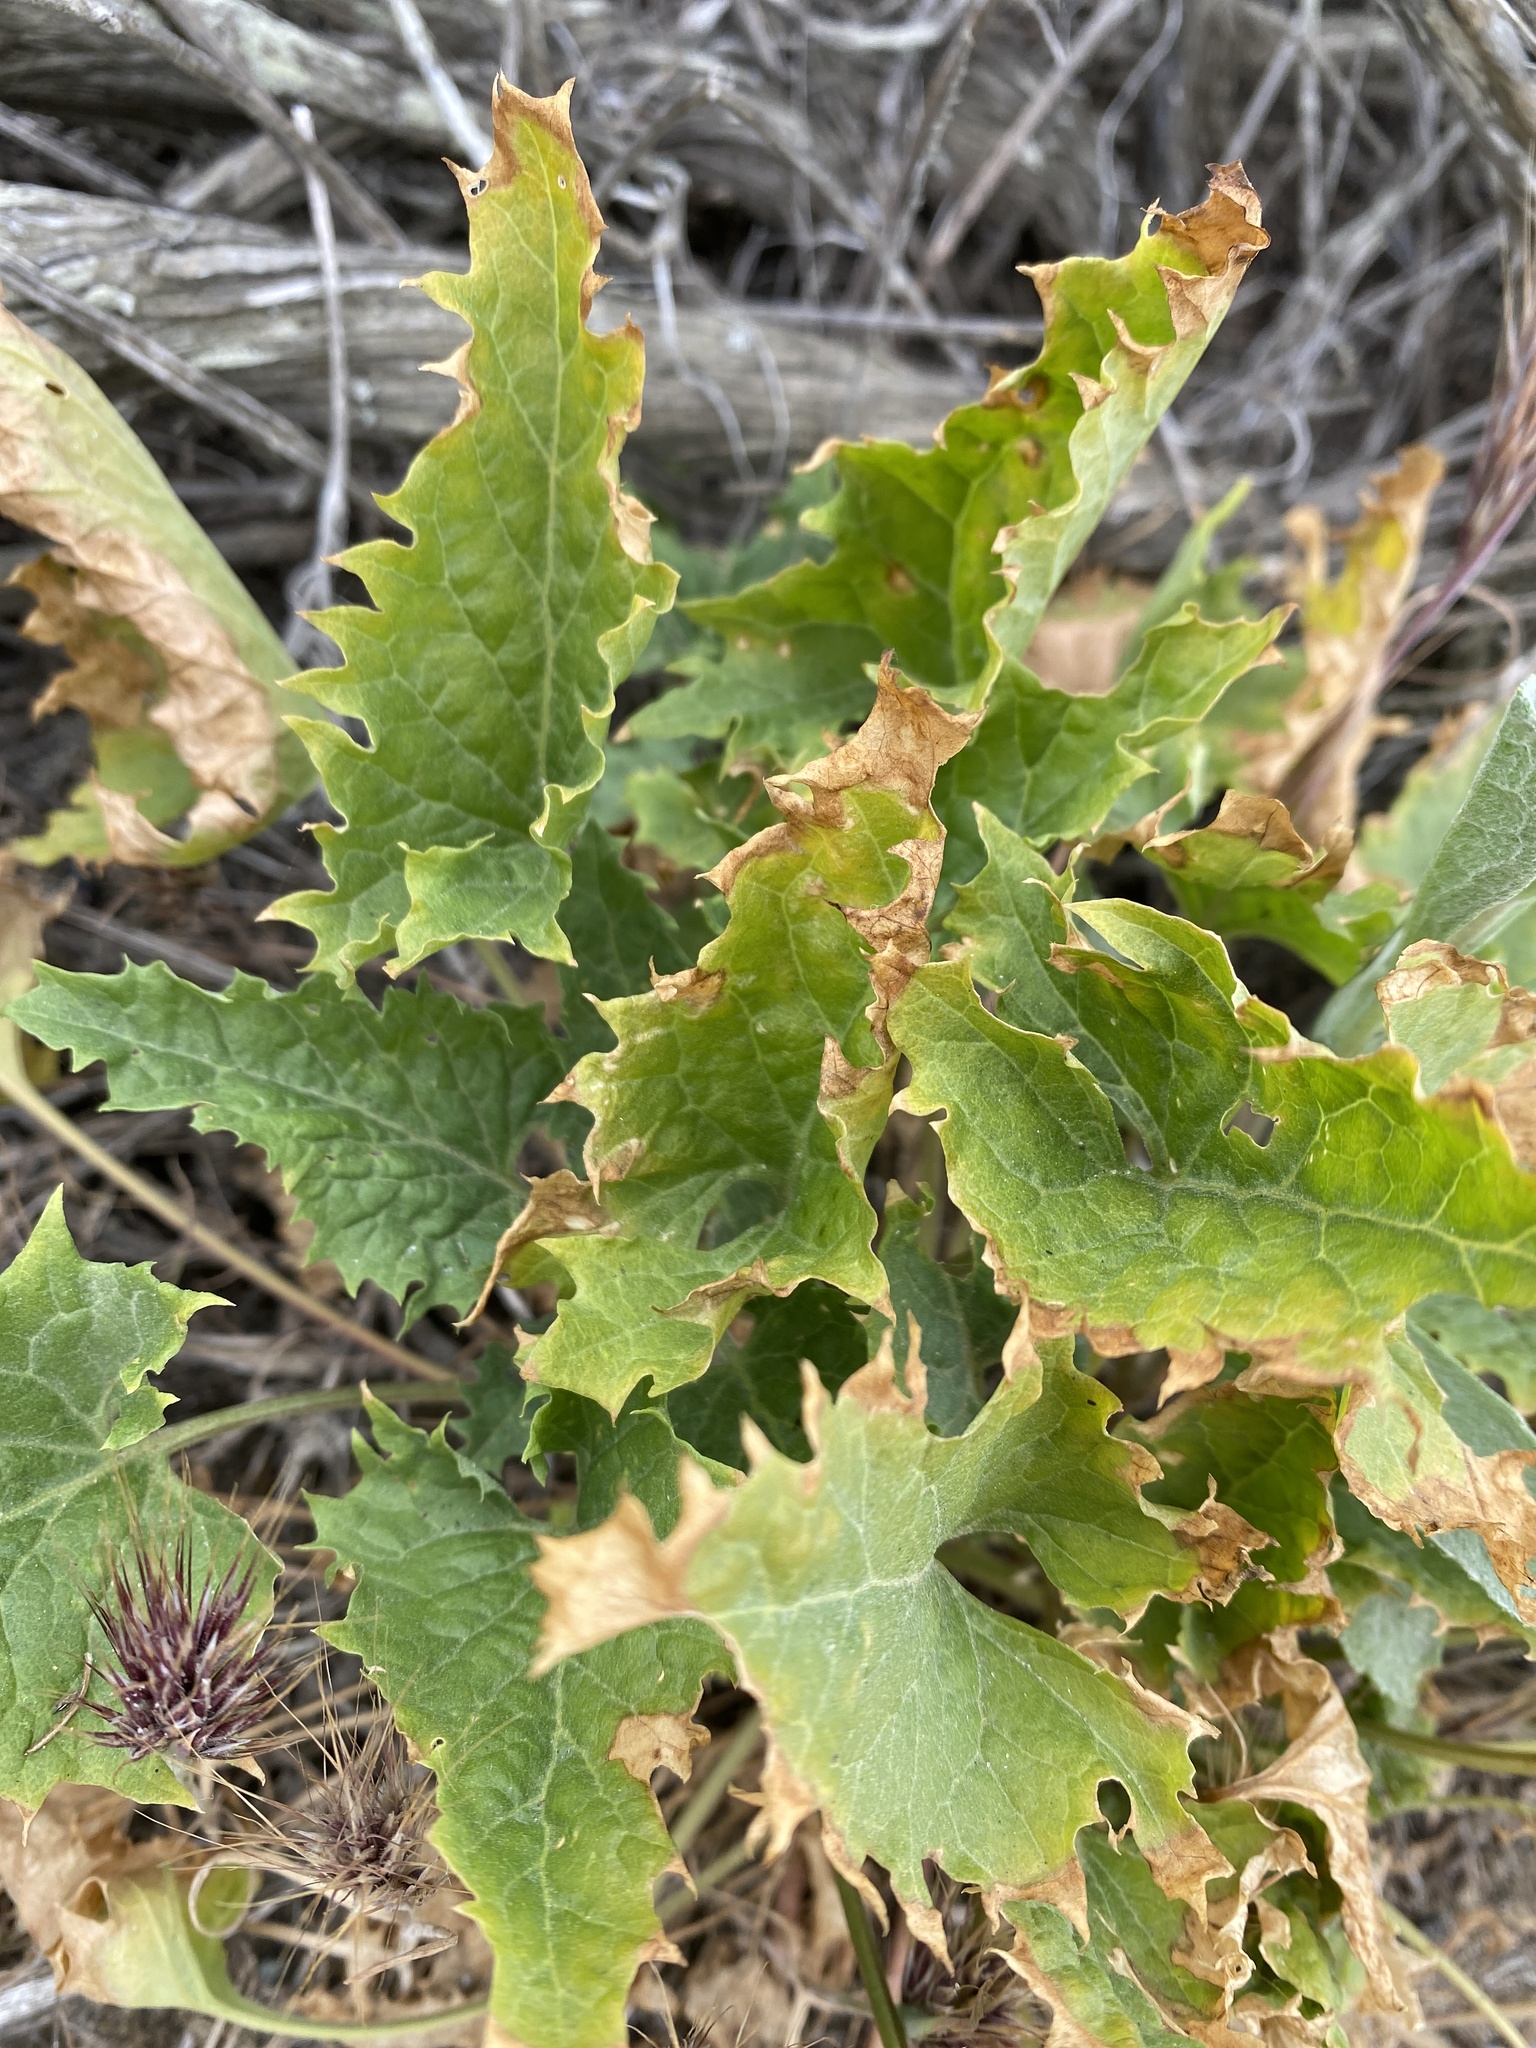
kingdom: Plantae
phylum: Tracheophyta
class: Magnoliopsida
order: Caryophyllales
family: Amaranthaceae
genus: Blitum
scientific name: Blitum californicum
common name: California goosefoot
